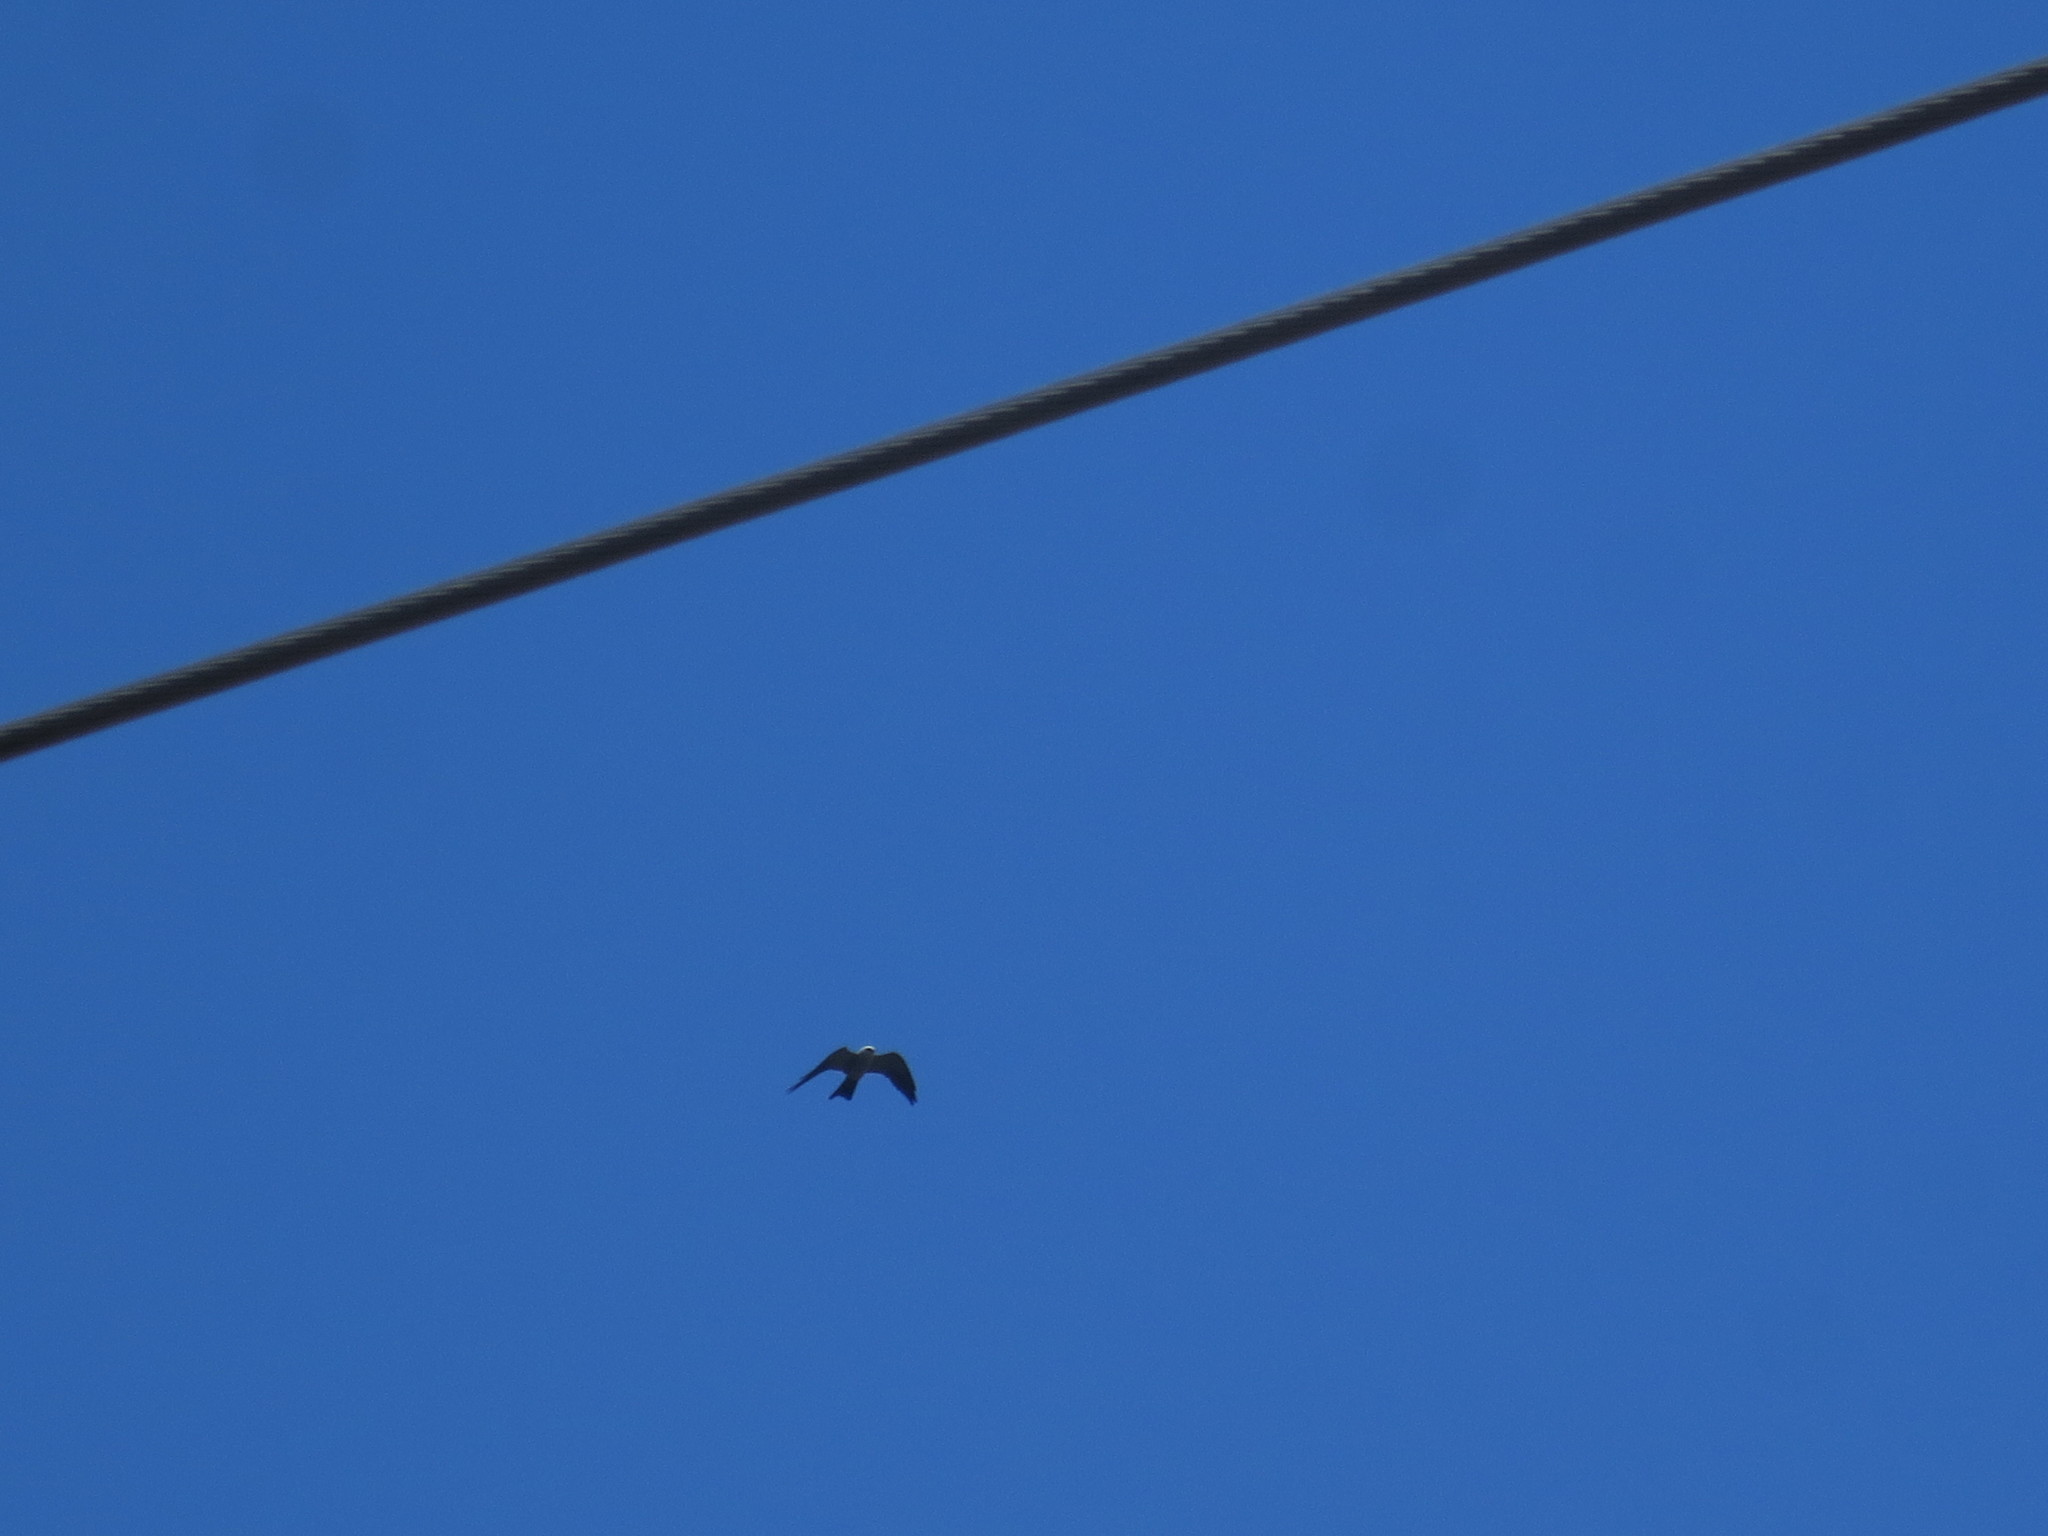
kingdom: Animalia
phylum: Chordata
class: Aves
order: Accipitriformes
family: Accipitridae
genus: Ictinia
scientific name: Ictinia mississippiensis
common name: Mississippi kite
